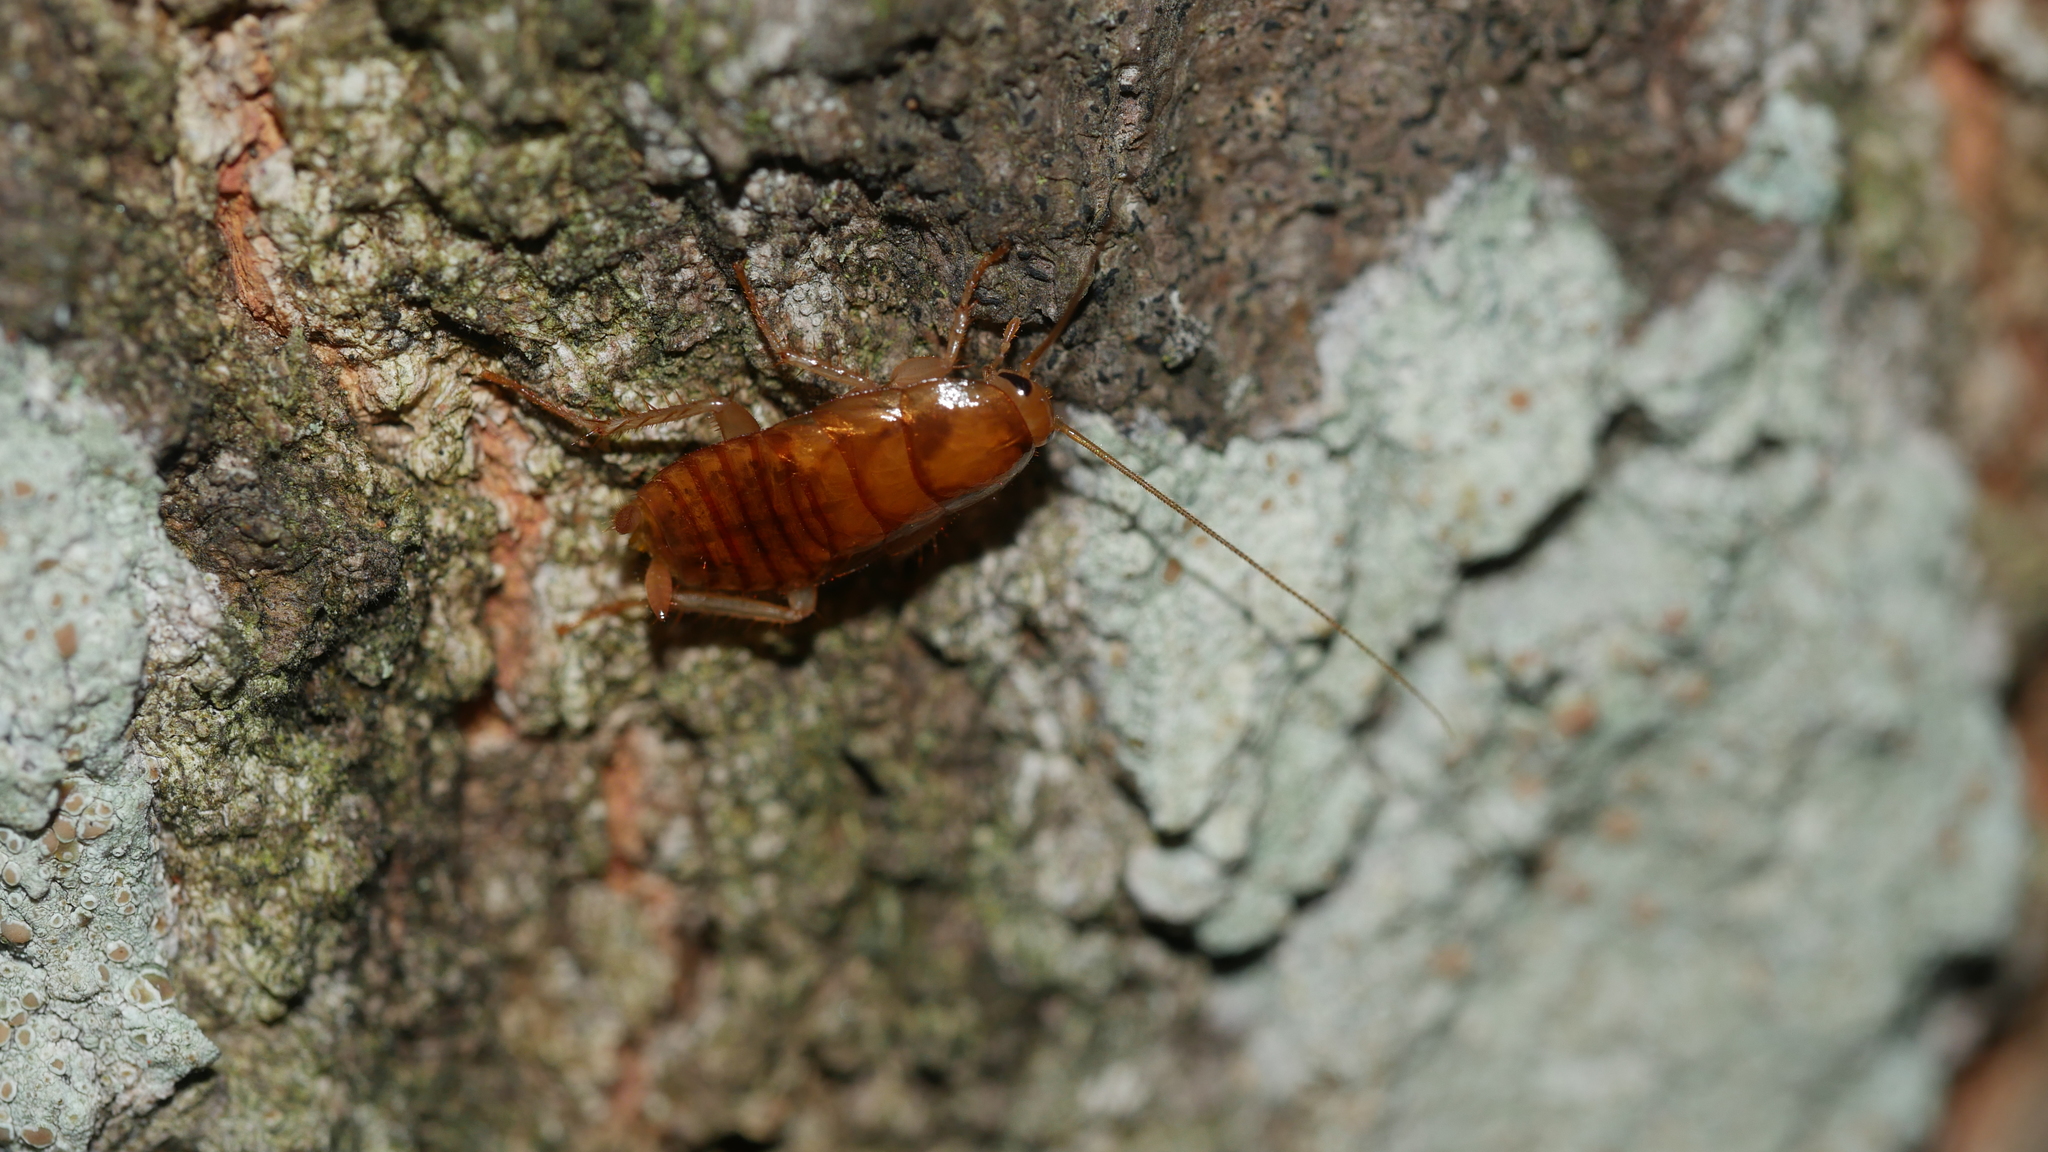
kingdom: Animalia
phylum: Arthropoda
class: Insecta
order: Blattodea
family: Ectobiidae
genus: Parcoblatta
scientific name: Parcoblatta
